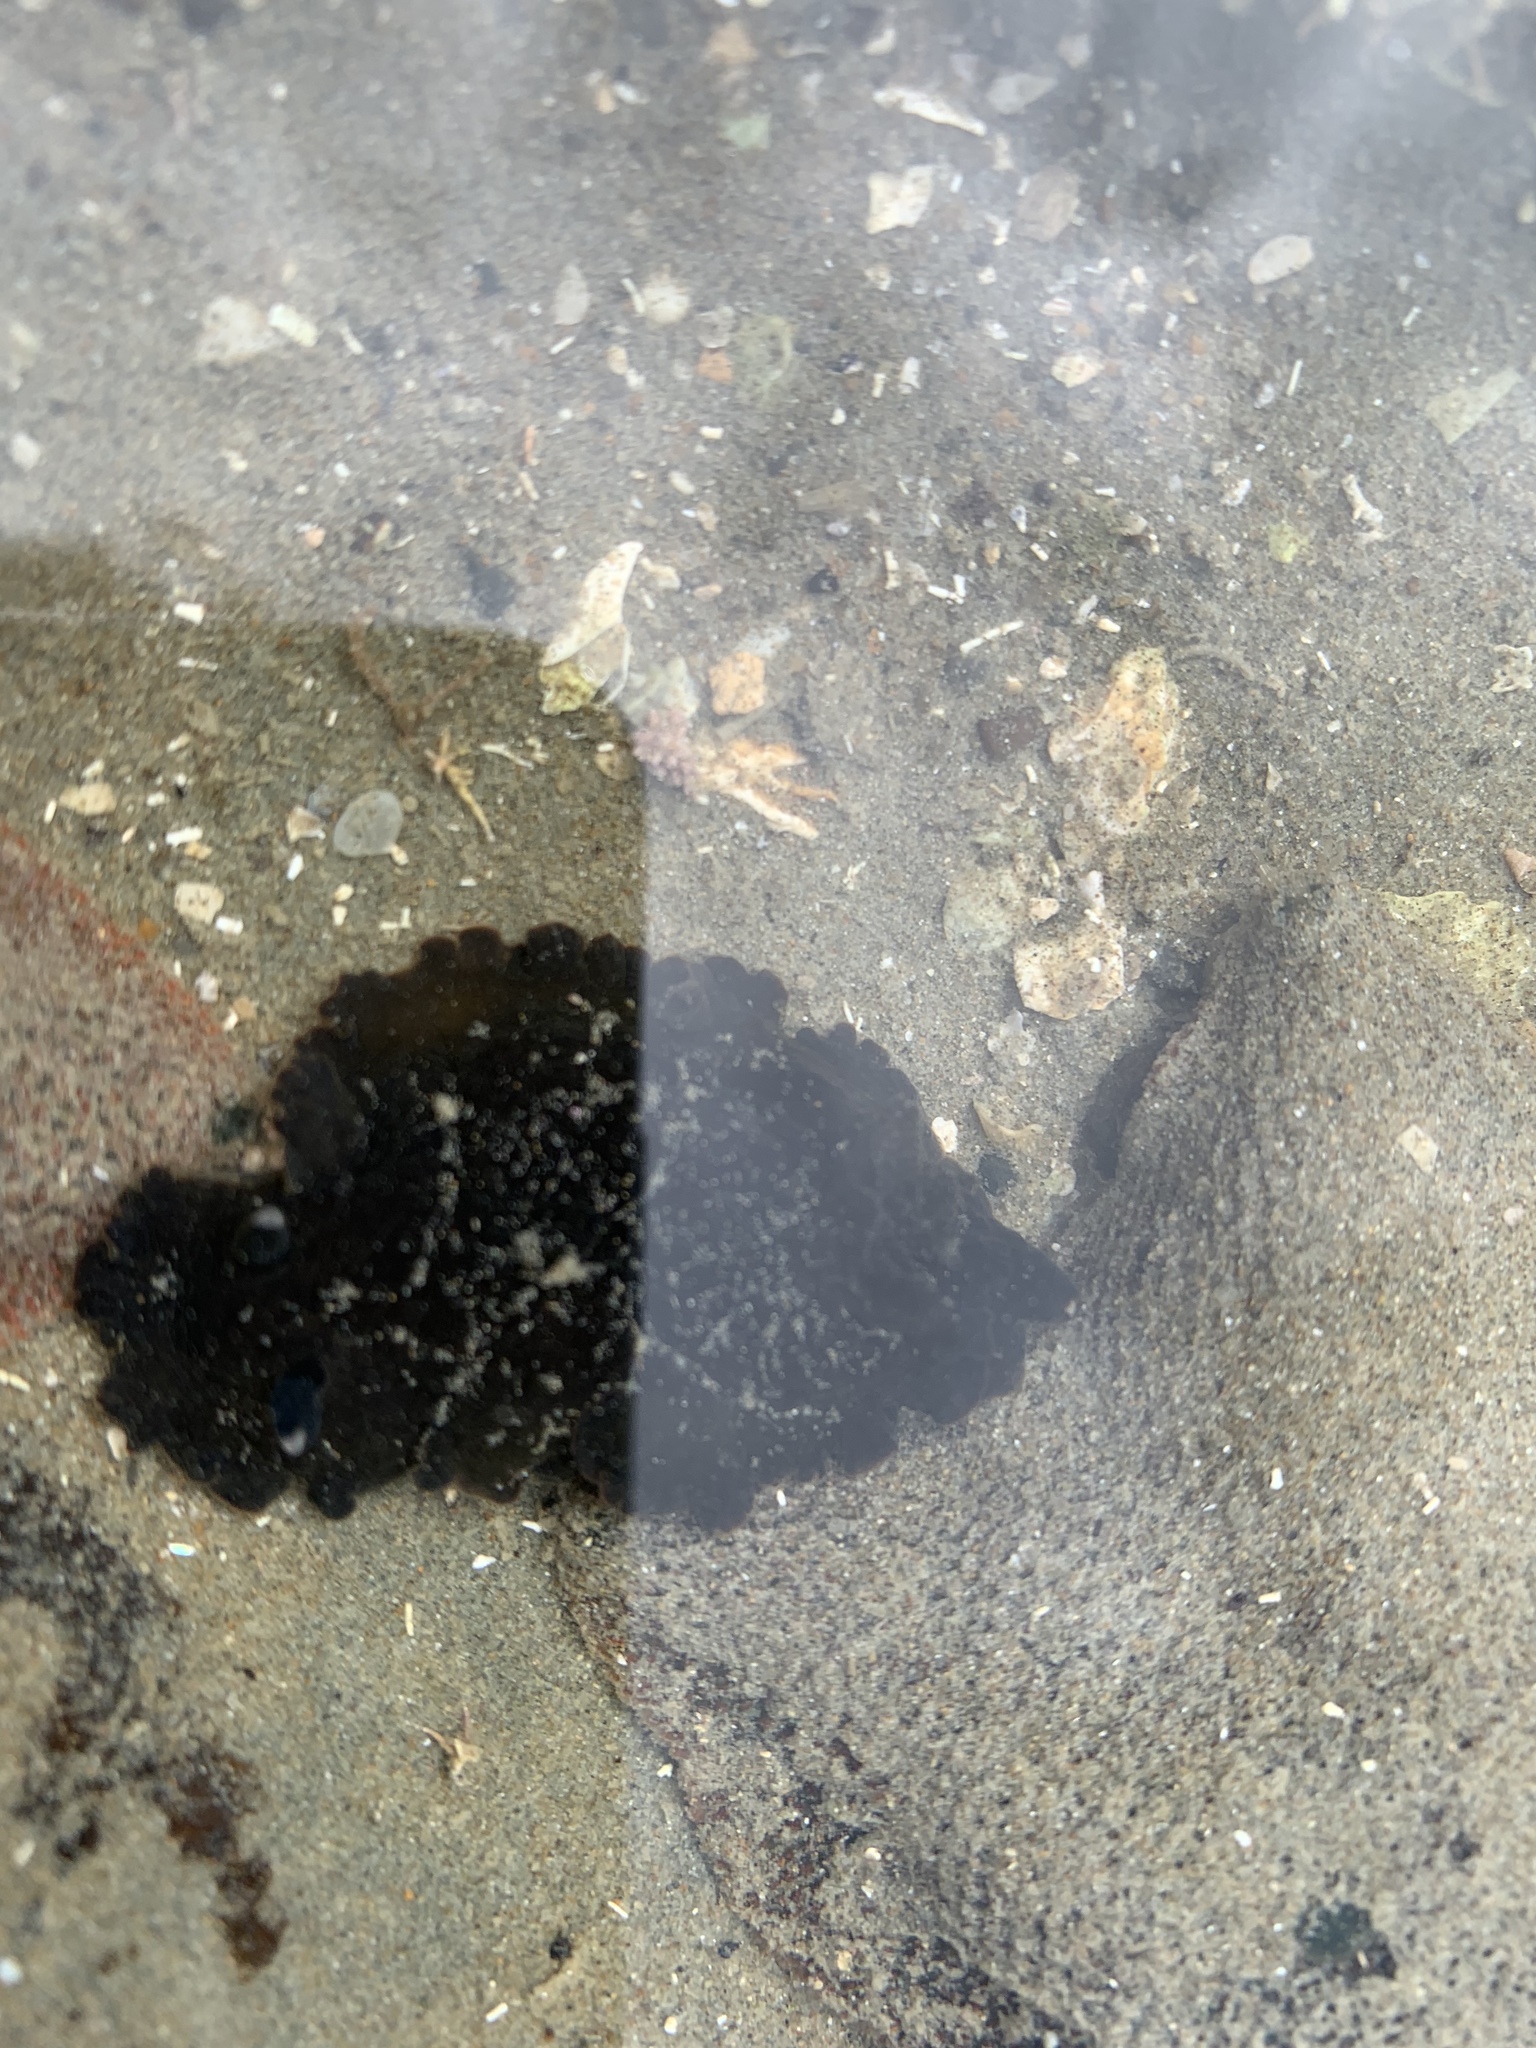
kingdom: Animalia
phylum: Mollusca
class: Gastropoda
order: Nudibranchia
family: Dendrodorididae
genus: Dendrodoris
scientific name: Dendrodoris nigra
